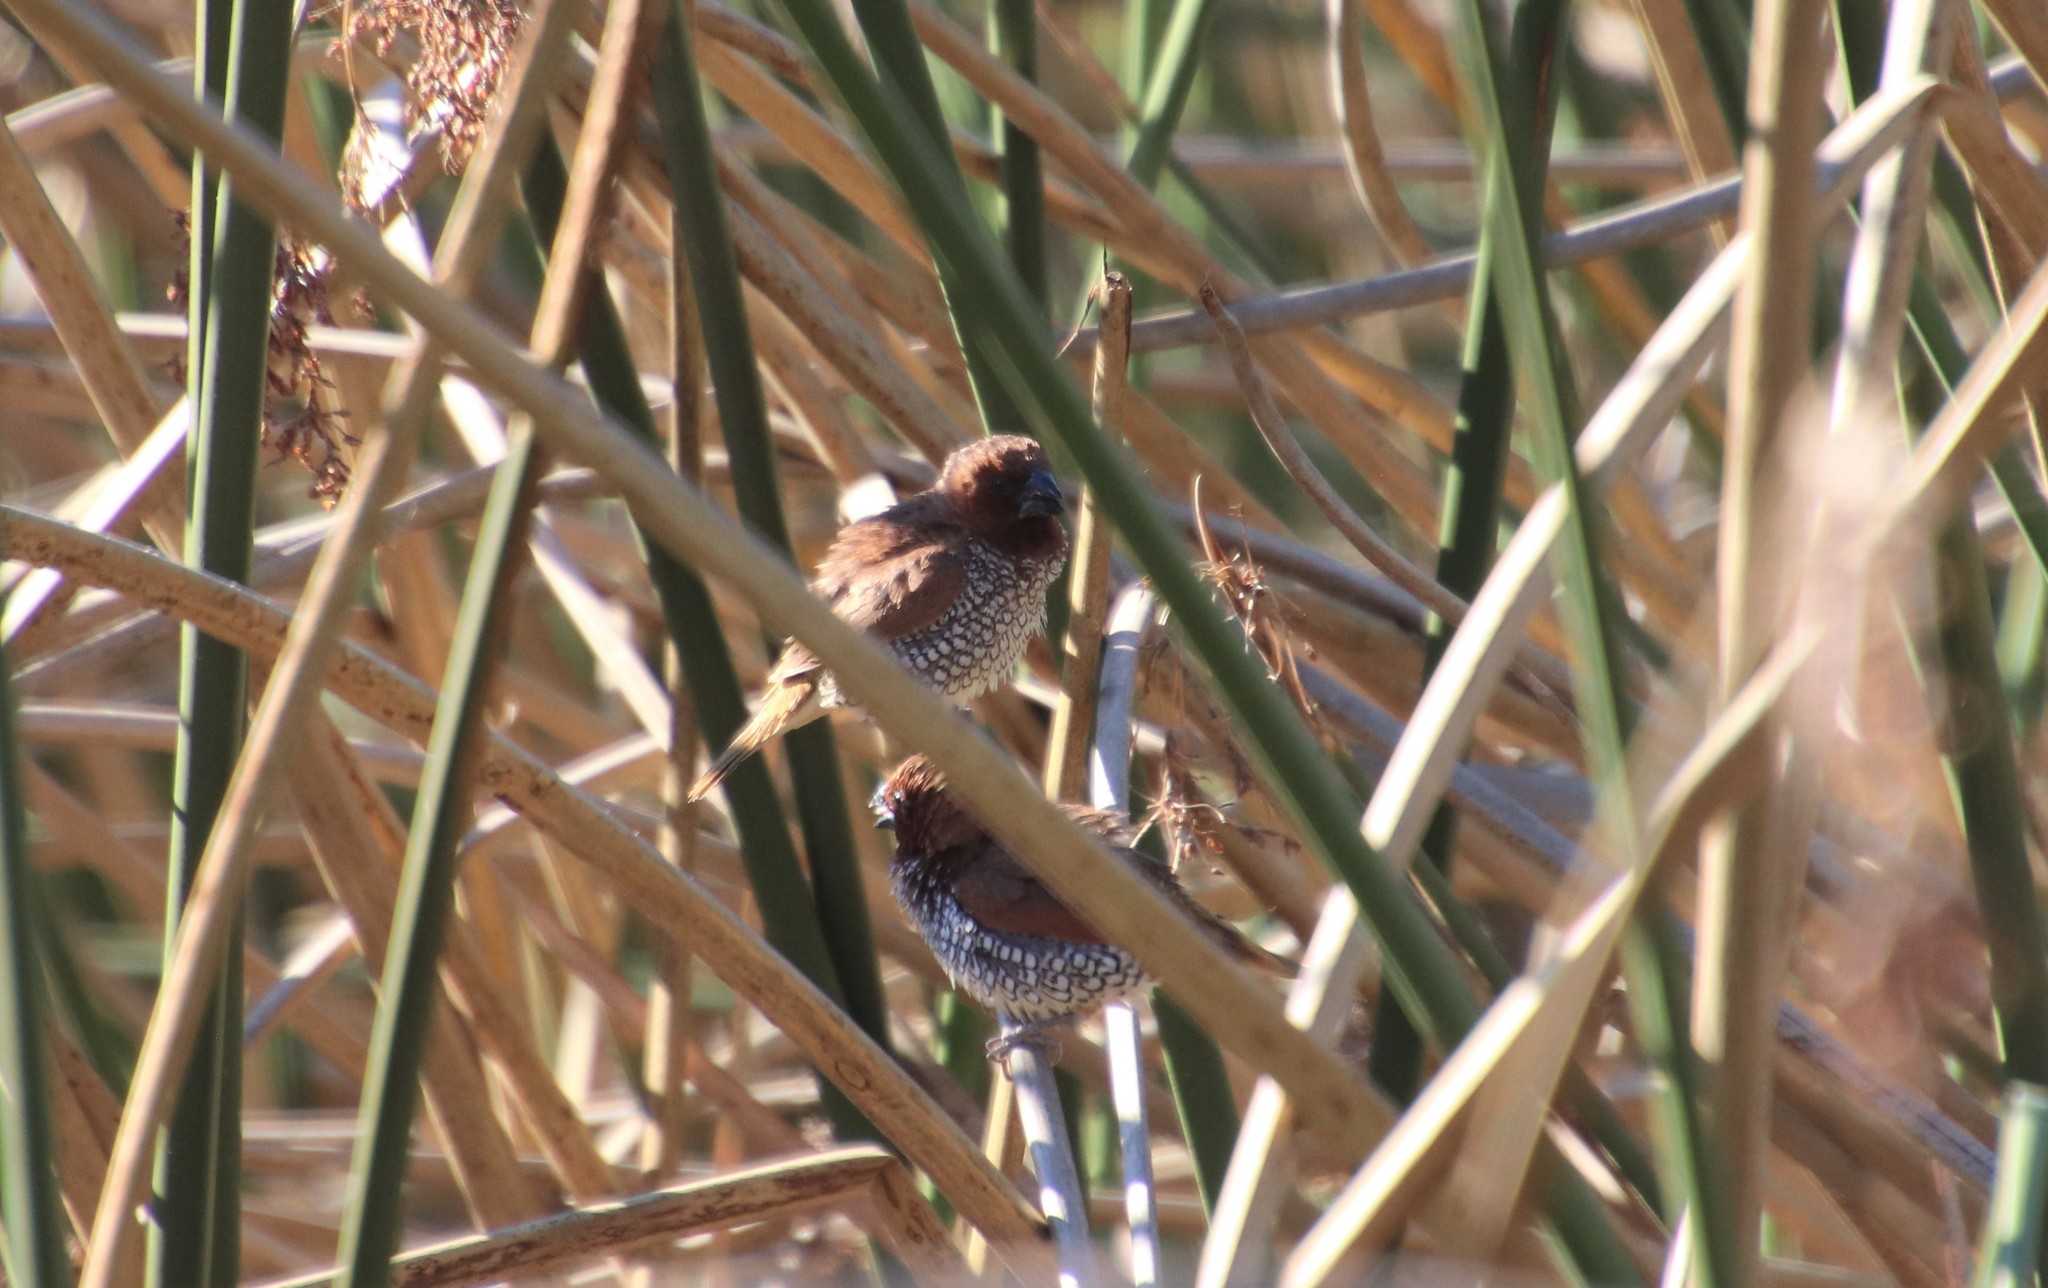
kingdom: Animalia
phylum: Chordata
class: Aves
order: Passeriformes
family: Estrildidae
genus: Lonchura
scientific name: Lonchura punctulata
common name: Scaly-breasted munia
